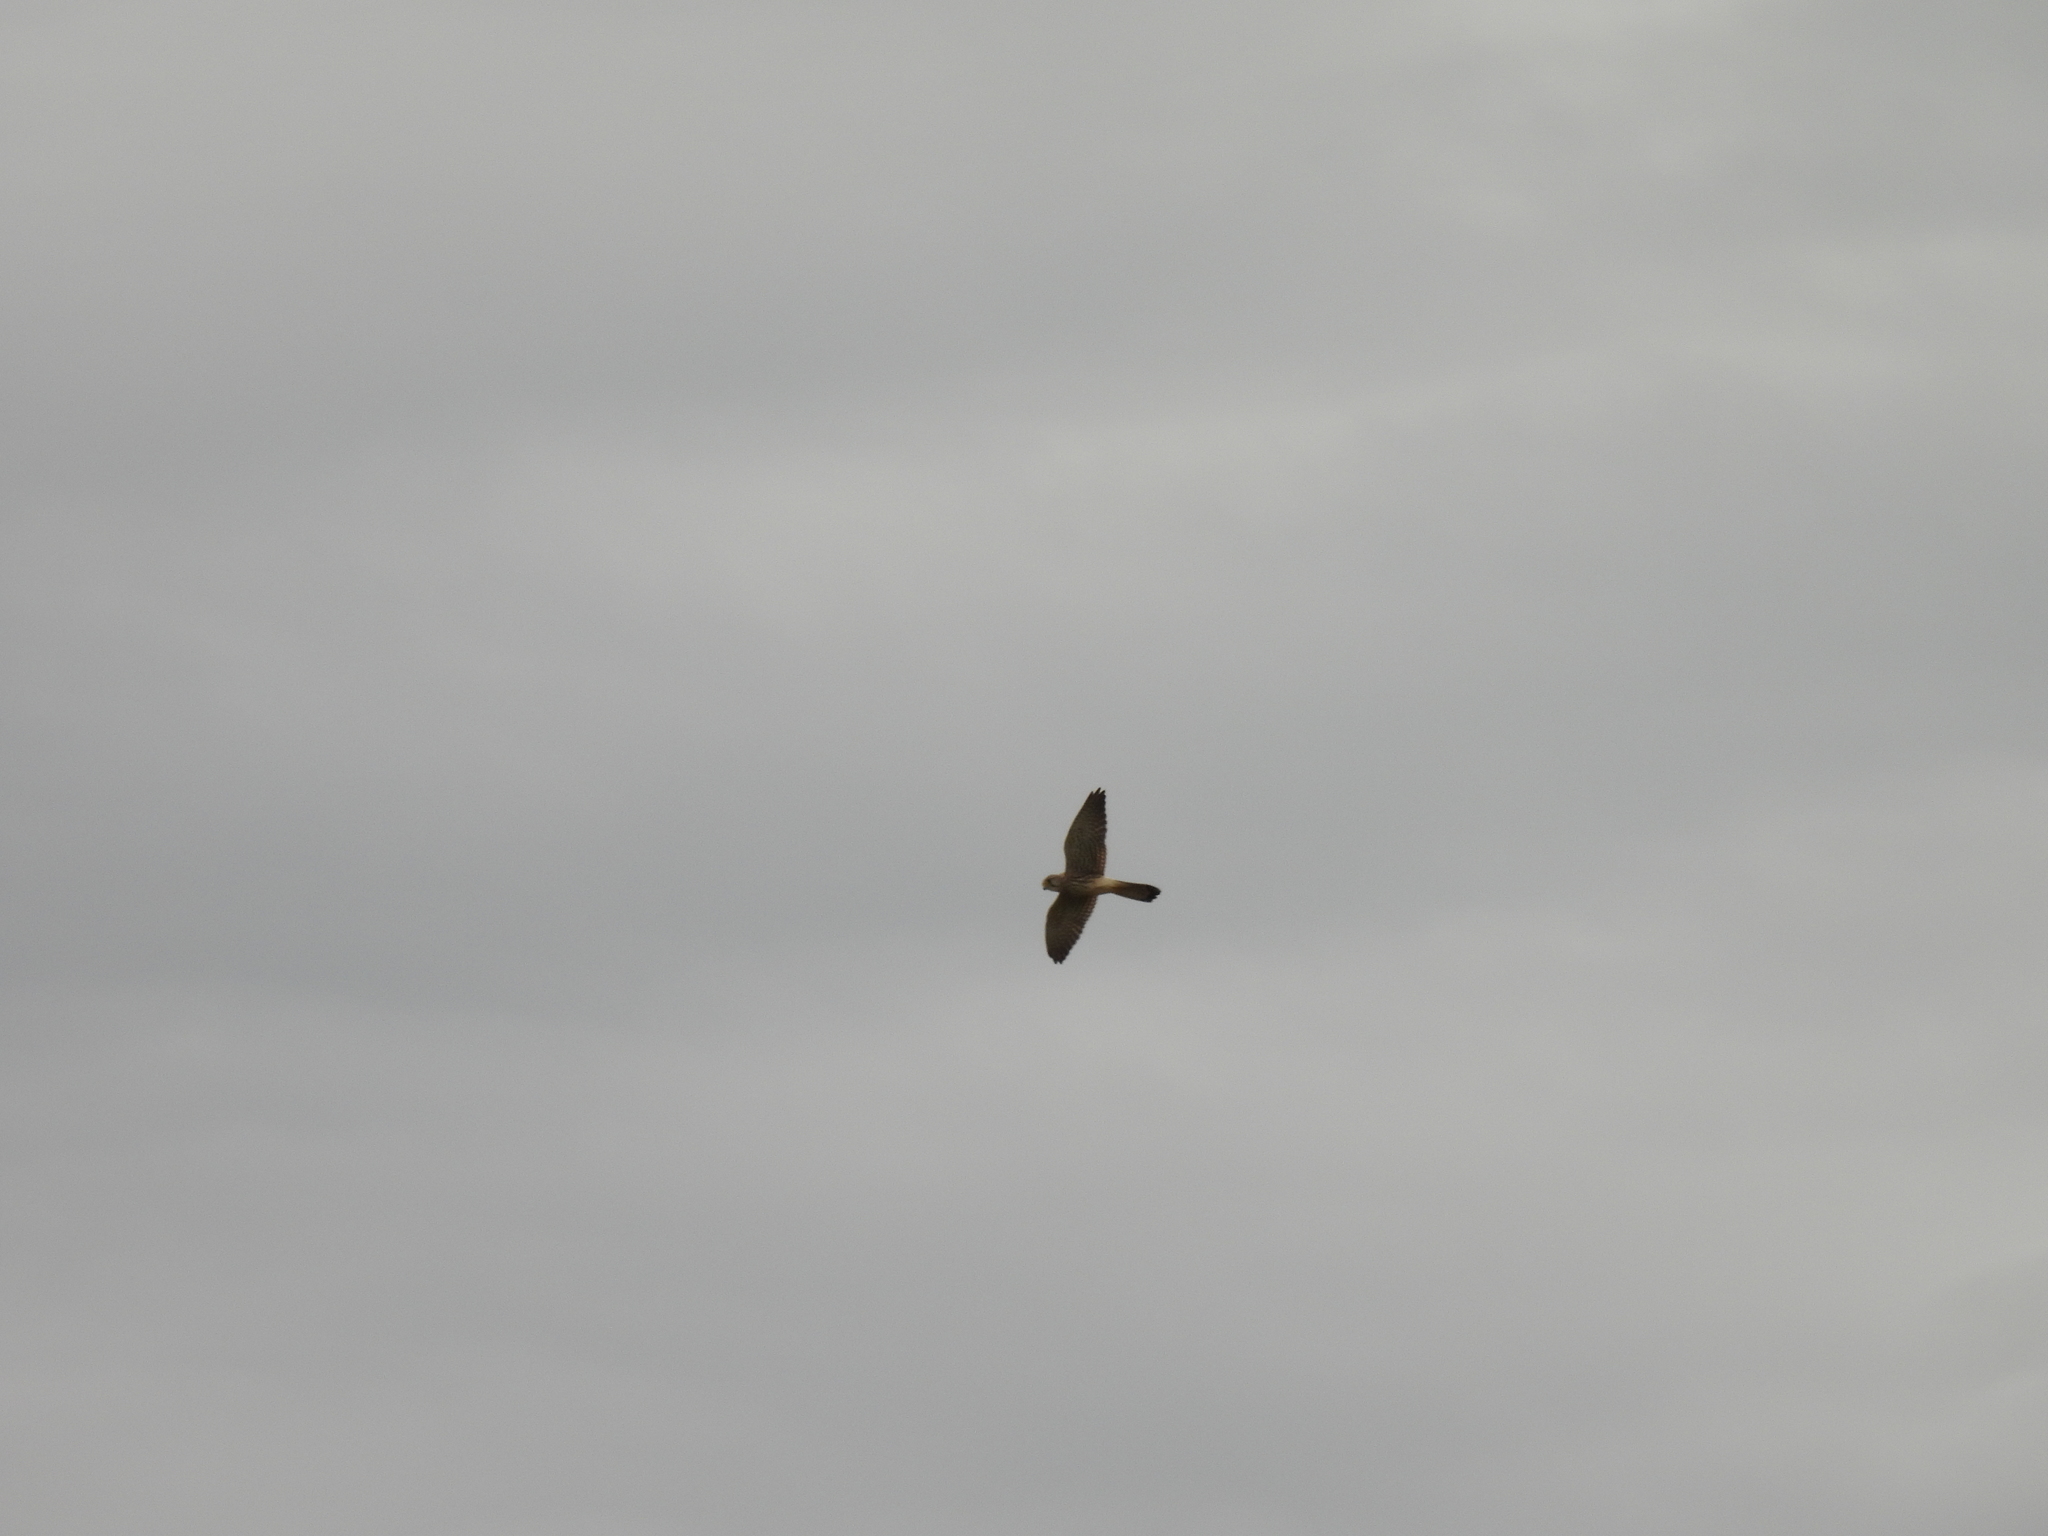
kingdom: Animalia
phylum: Chordata
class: Aves
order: Falconiformes
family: Falconidae
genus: Falco
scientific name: Falco tinnunculus
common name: Common kestrel
